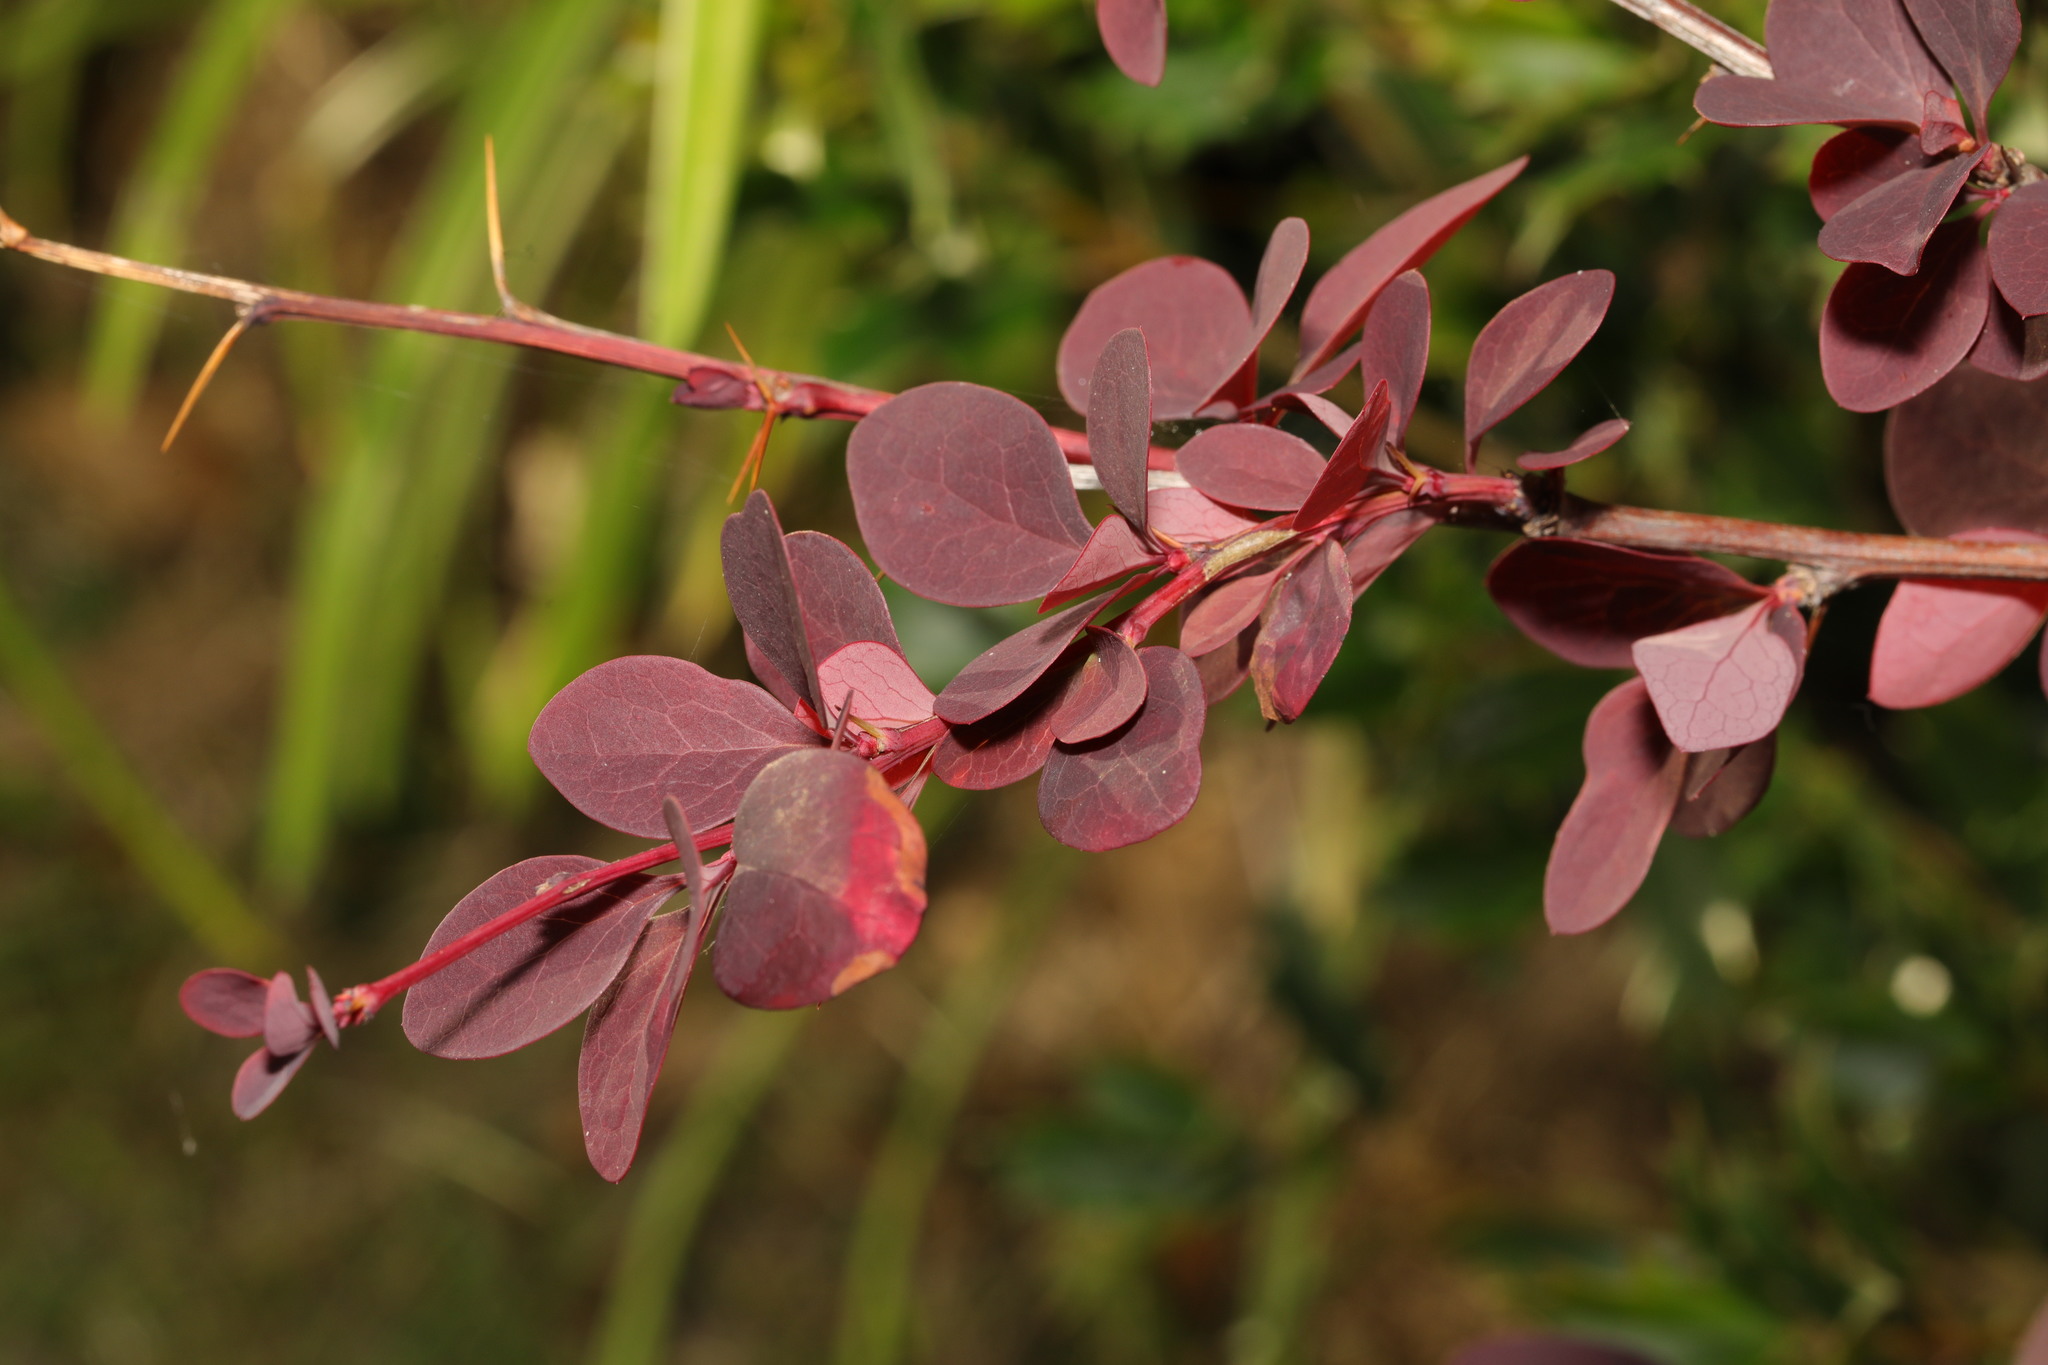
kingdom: Plantae
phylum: Tracheophyta
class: Magnoliopsida
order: Ranunculales
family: Berberidaceae
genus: Berberis
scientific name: Berberis thunbergii
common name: Japanese barberry
